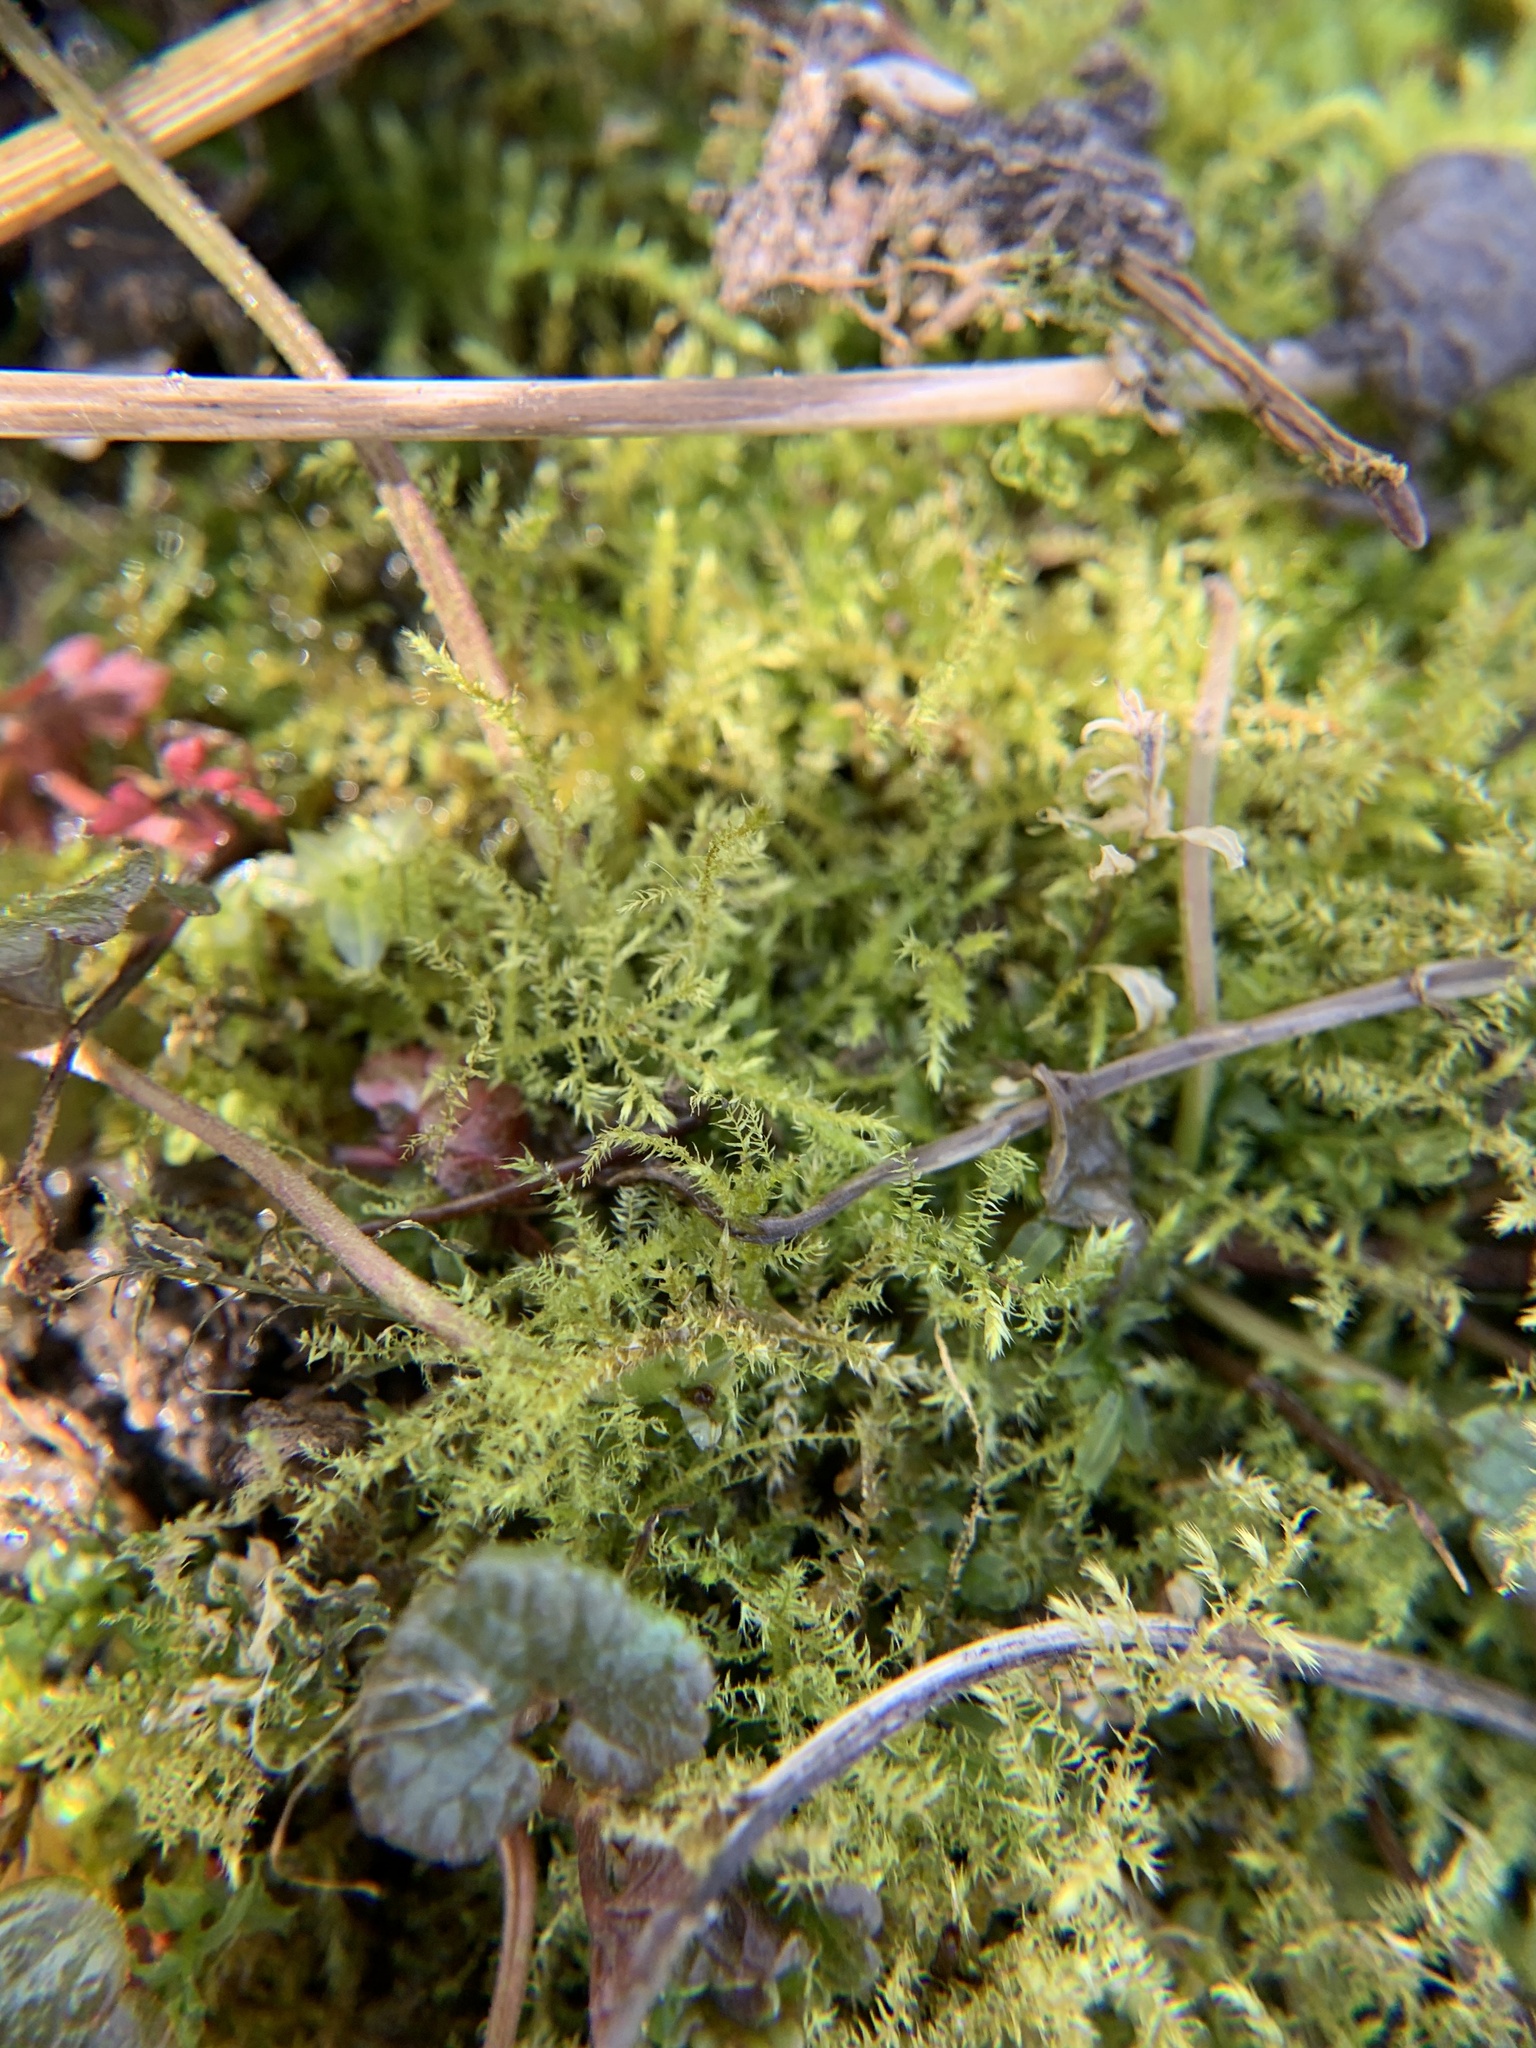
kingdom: Plantae
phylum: Bryophyta
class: Bryopsida
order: Hypnales
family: Brachytheciaceae
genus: Kindbergia
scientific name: Kindbergia praelonga
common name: Slender beaked moss
